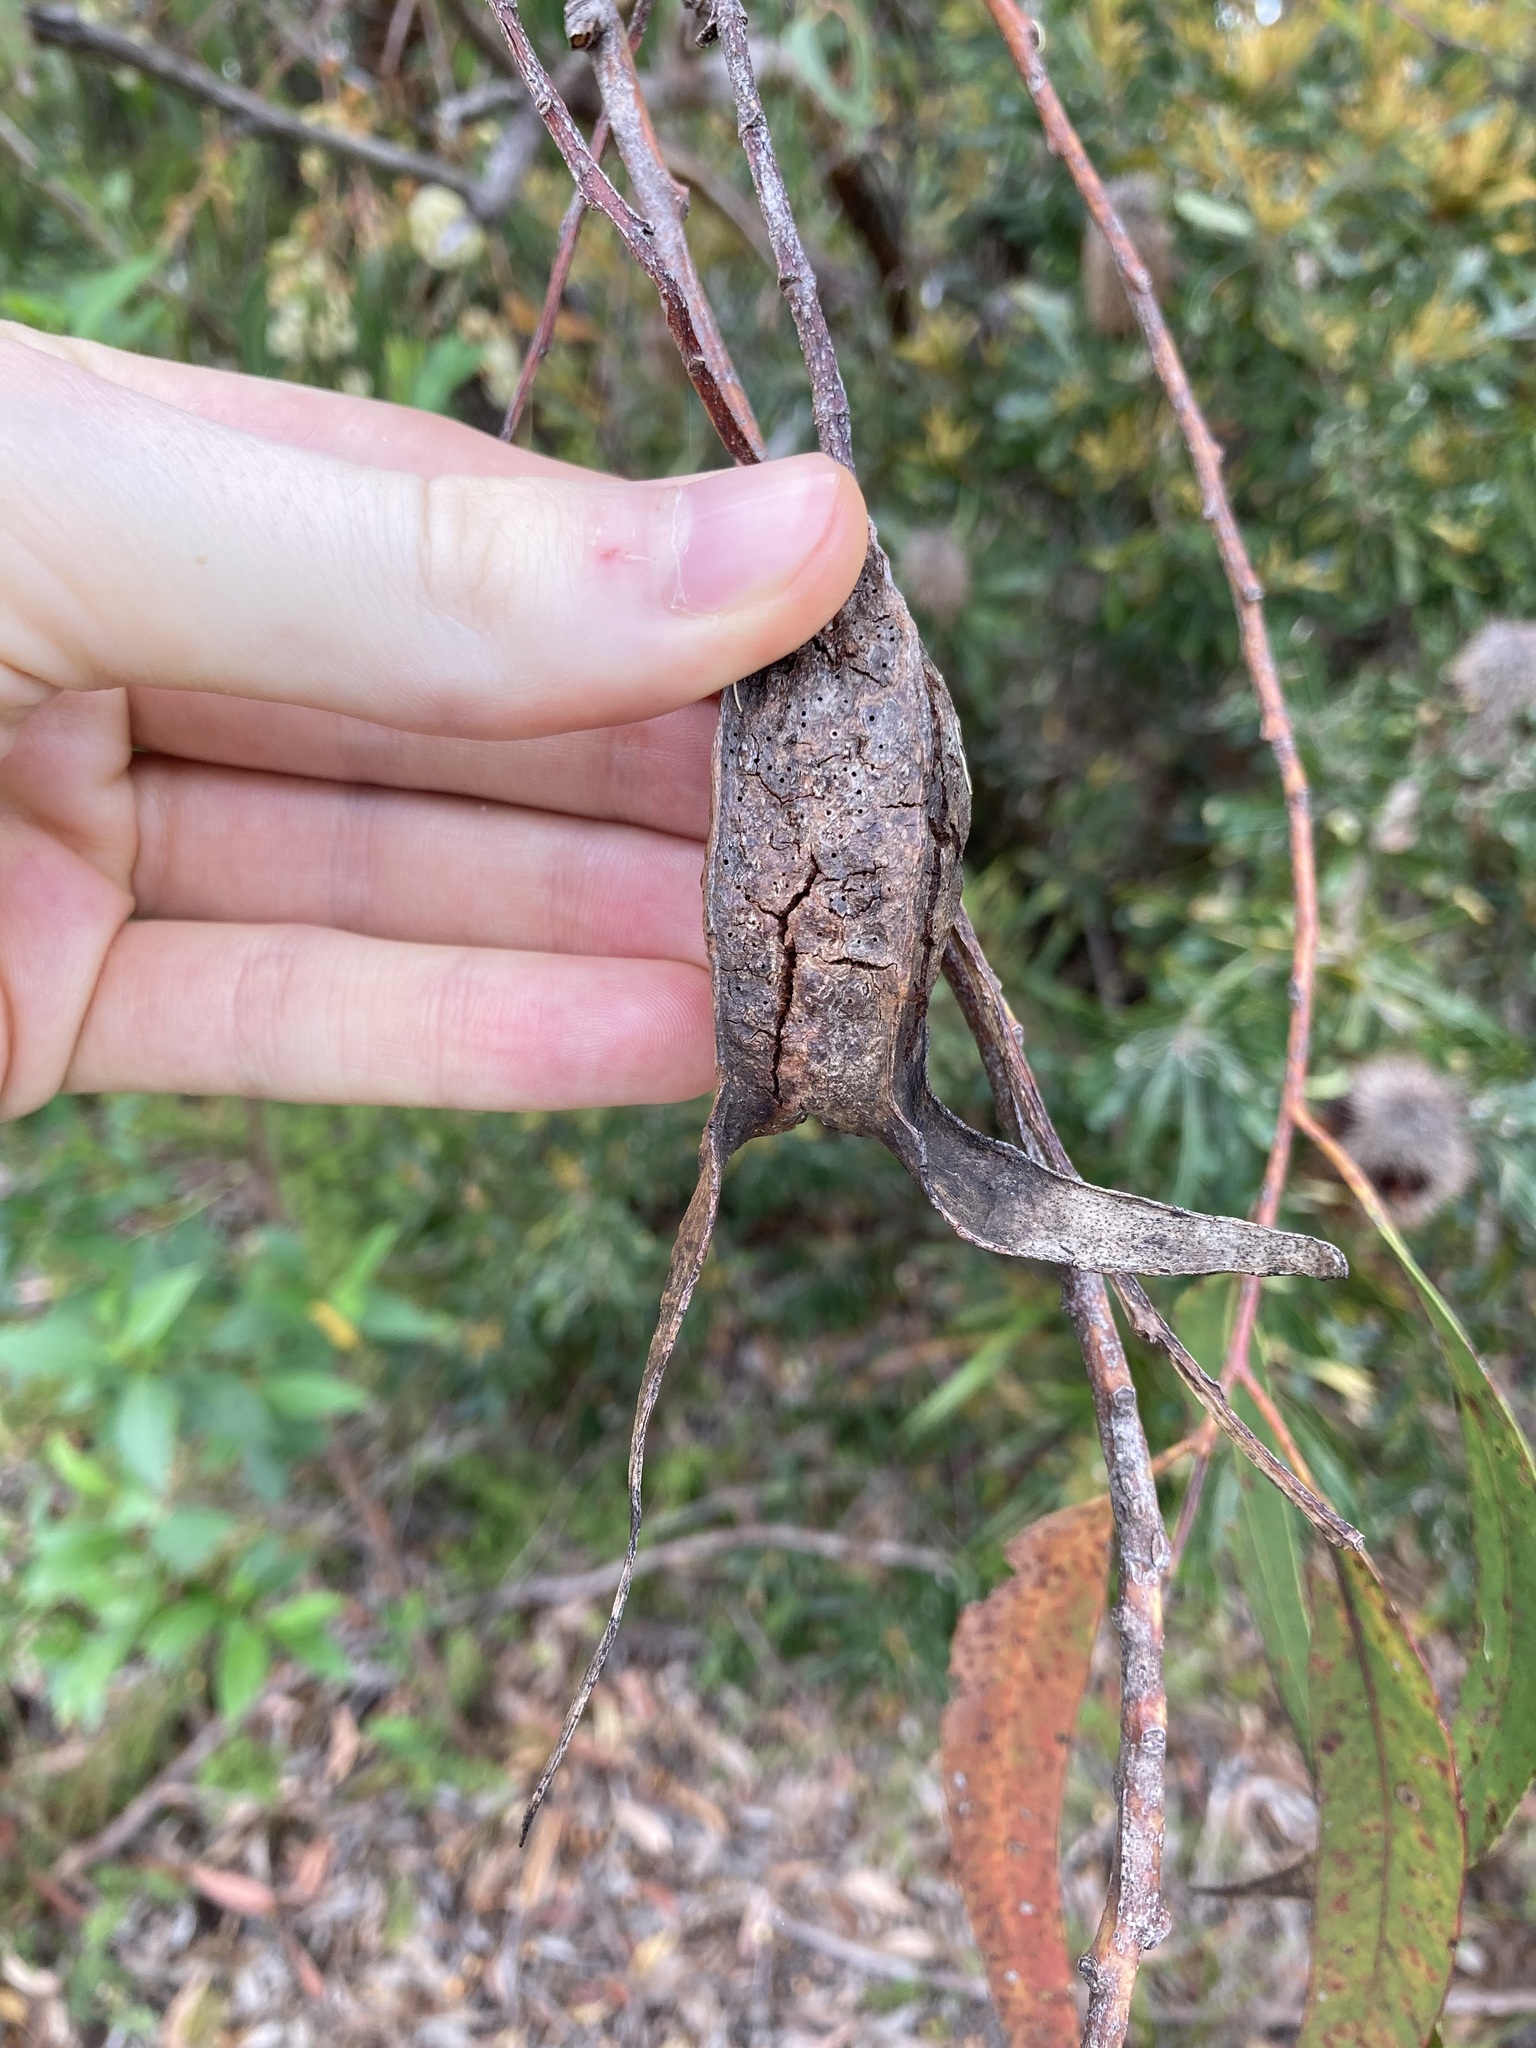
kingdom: Animalia
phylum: Arthropoda
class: Insecta
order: Hemiptera
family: Eriococcidae
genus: Apiomorpha
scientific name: Apiomorpha duplex
